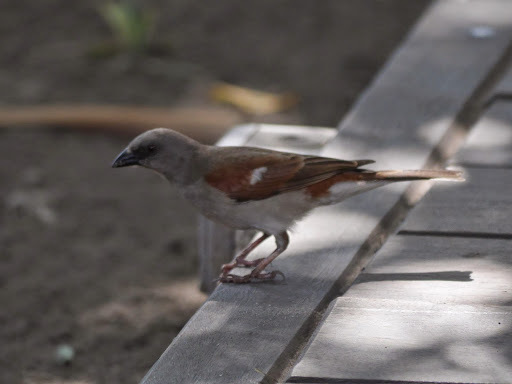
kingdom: Animalia
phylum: Chordata
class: Aves
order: Passeriformes
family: Passeridae
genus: Passer
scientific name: Passer griseus
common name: Northern grey-headed sparrow
